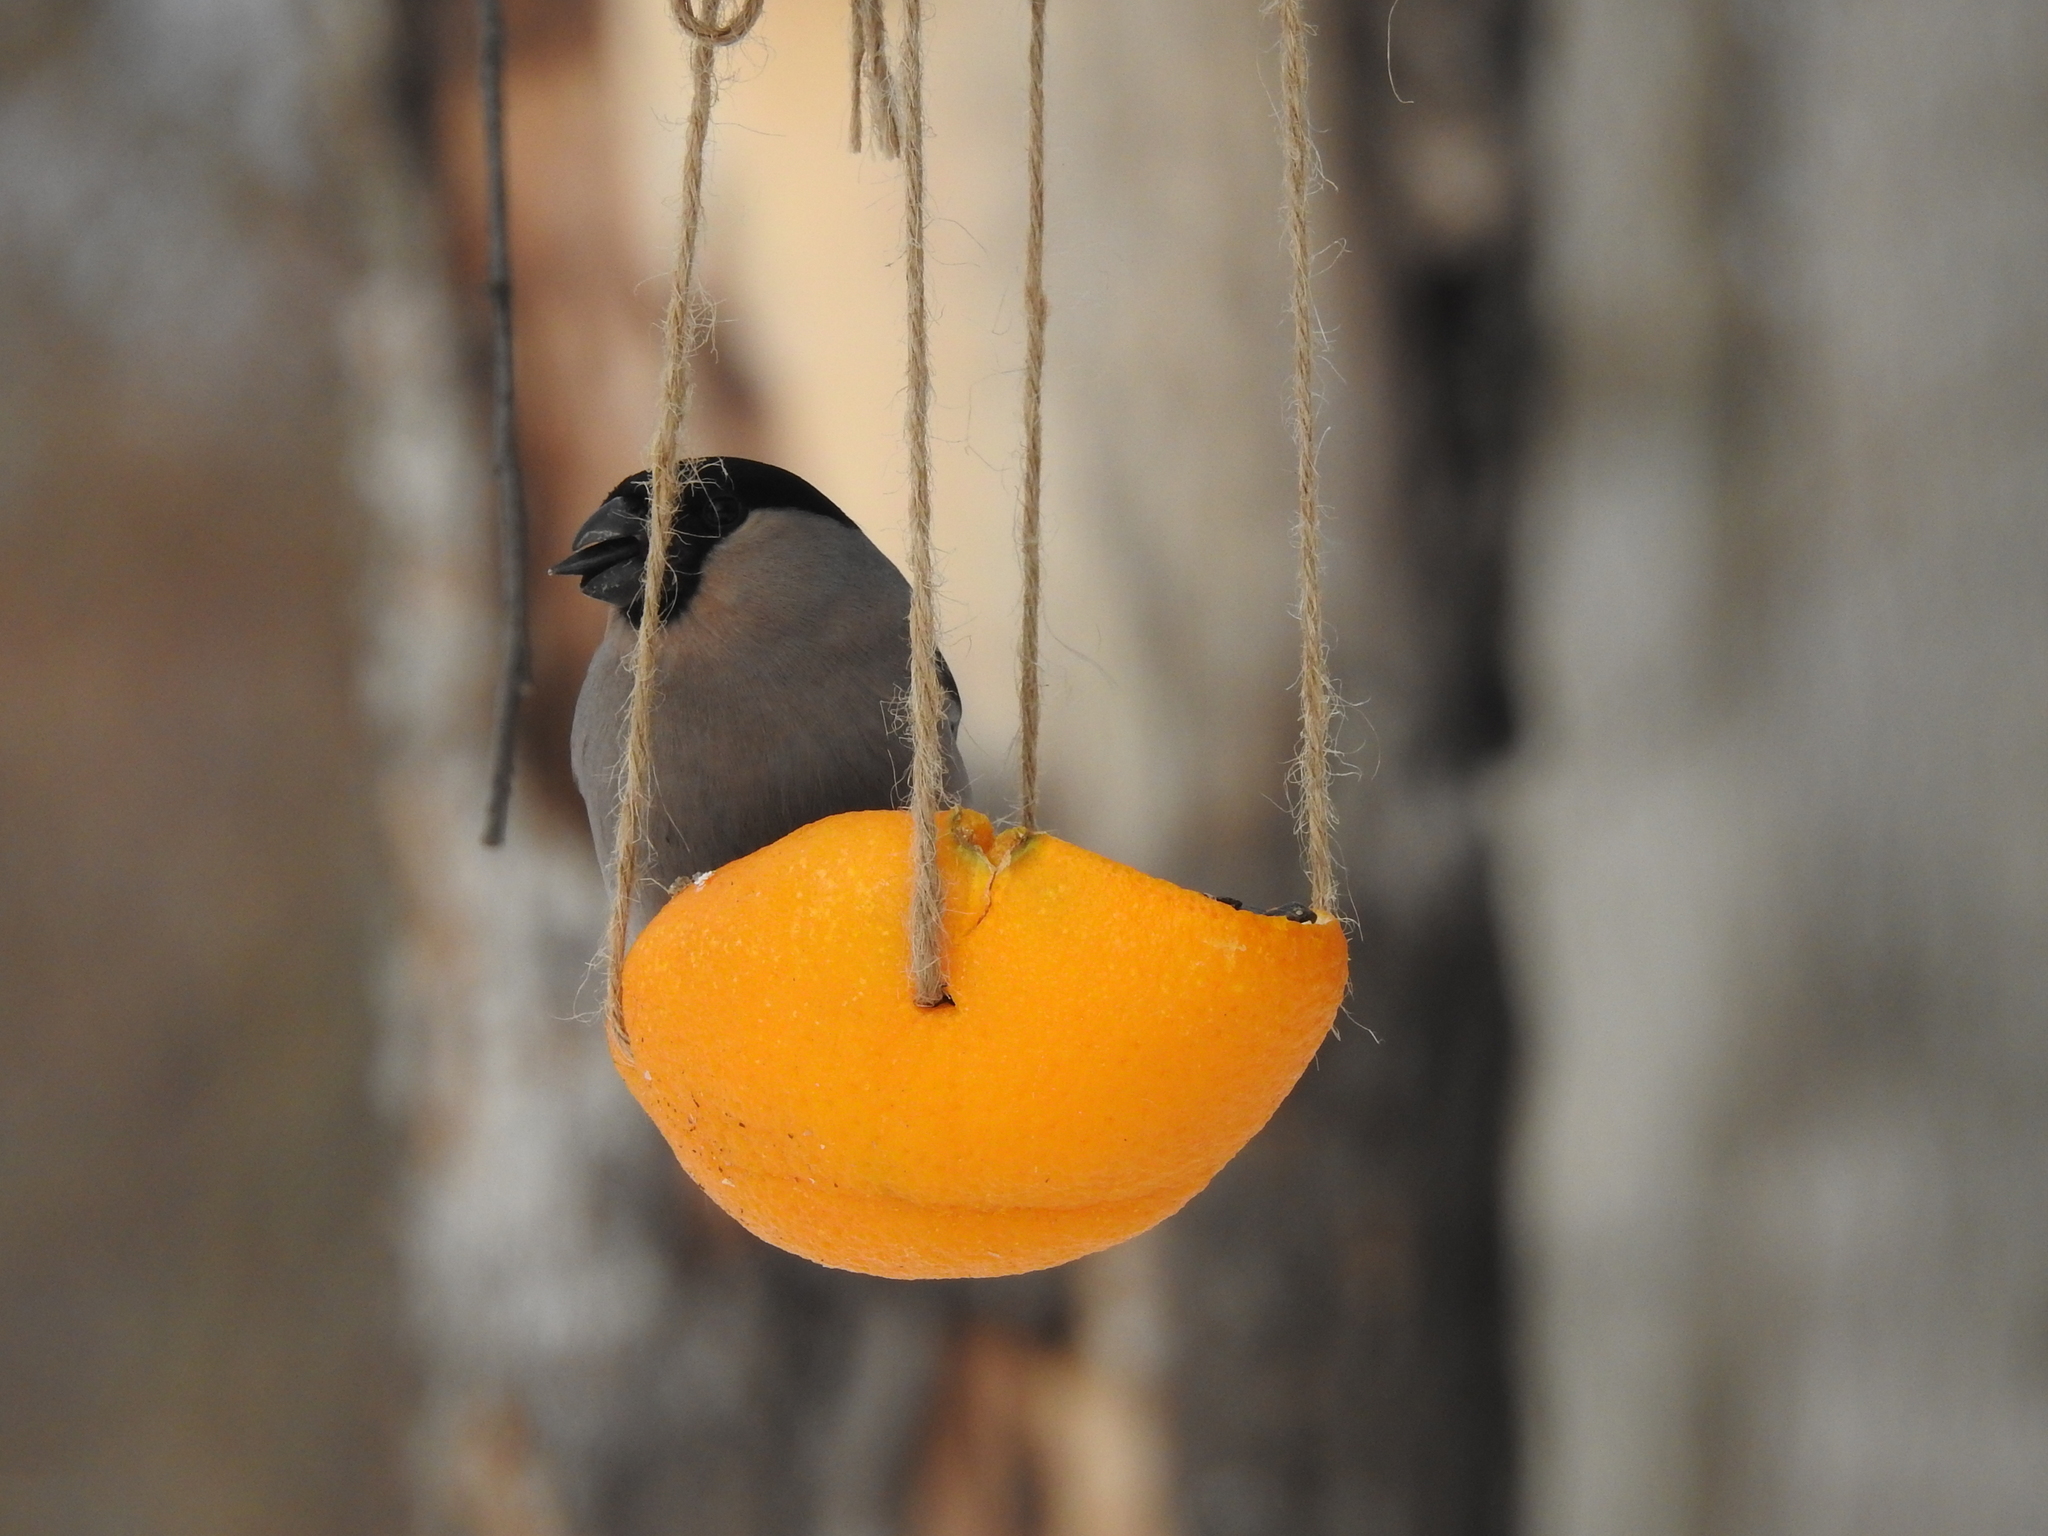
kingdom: Animalia
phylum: Chordata
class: Aves
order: Passeriformes
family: Fringillidae
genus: Pyrrhula
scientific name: Pyrrhula pyrrhula
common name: Eurasian bullfinch
